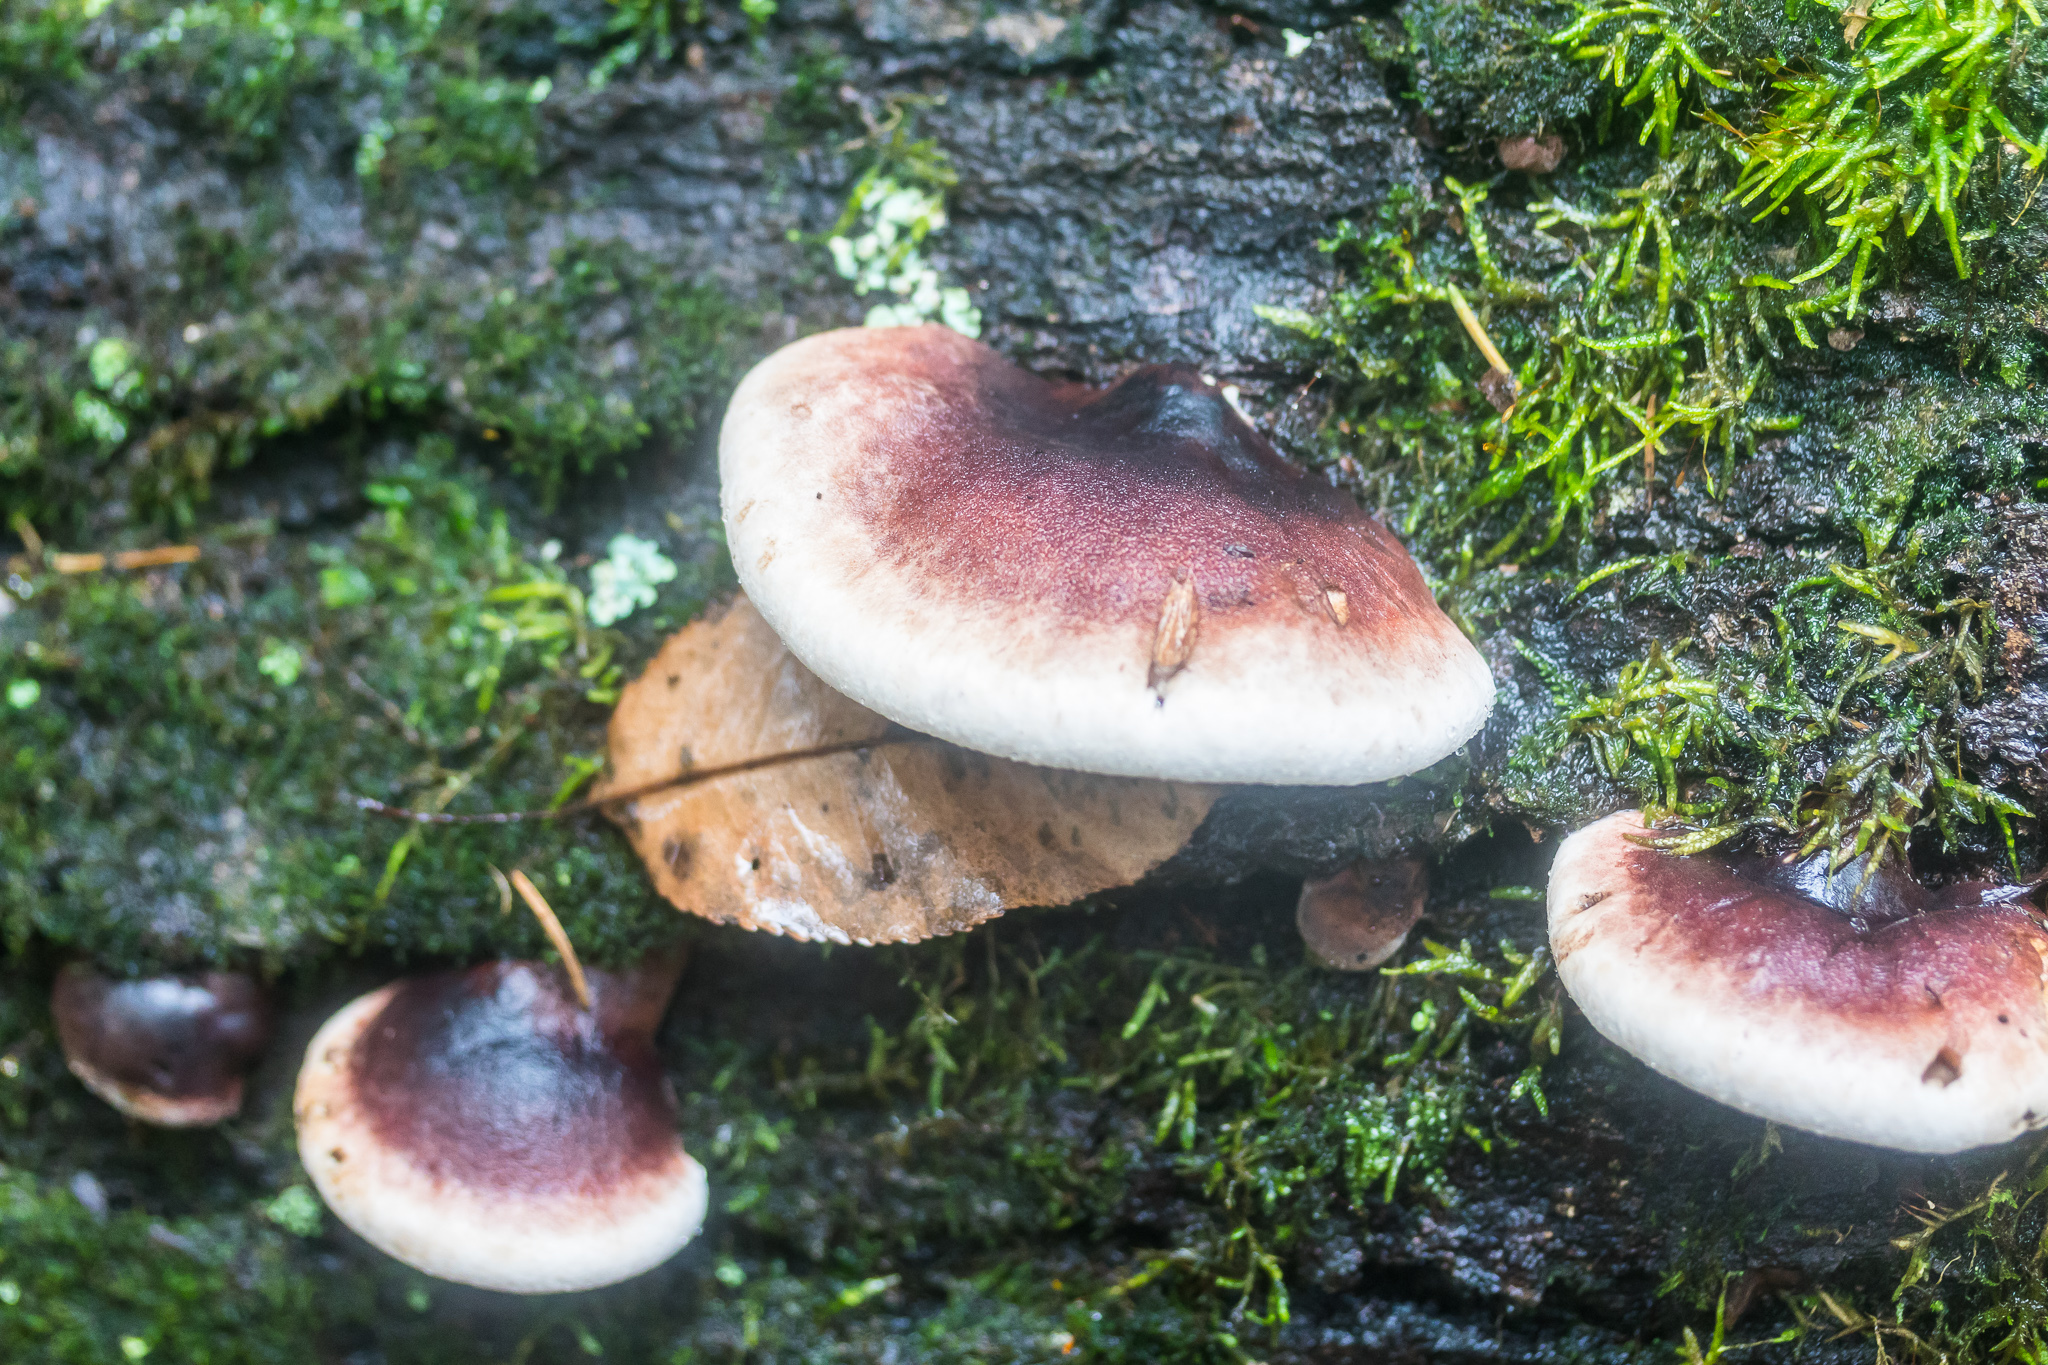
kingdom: Fungi
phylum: Basidiomycota
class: Agaricomycetes
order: Polyporales
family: Ischnodermataceae
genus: Ischnoderma
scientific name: Ischnoderma resinosum
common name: Resinous polypore
